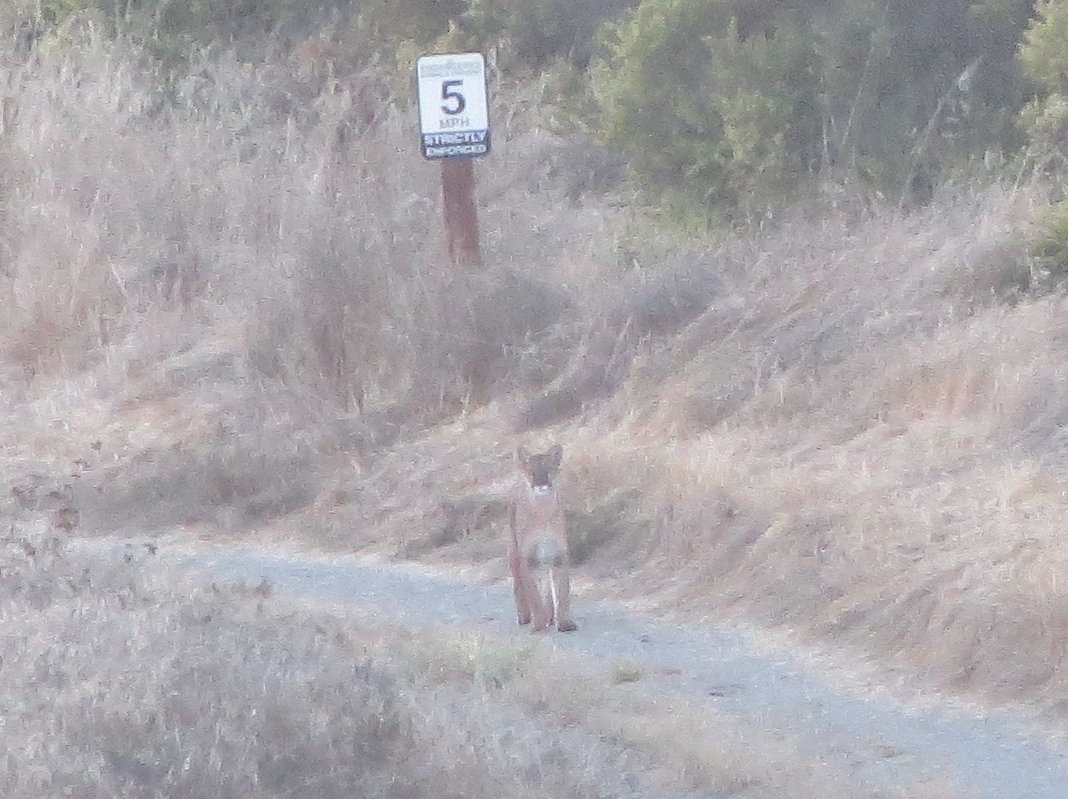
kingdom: Animalia
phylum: Chordata
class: Mammalia
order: Carnivora
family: Felidae
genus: Puma
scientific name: Puma concolor
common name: Puma
